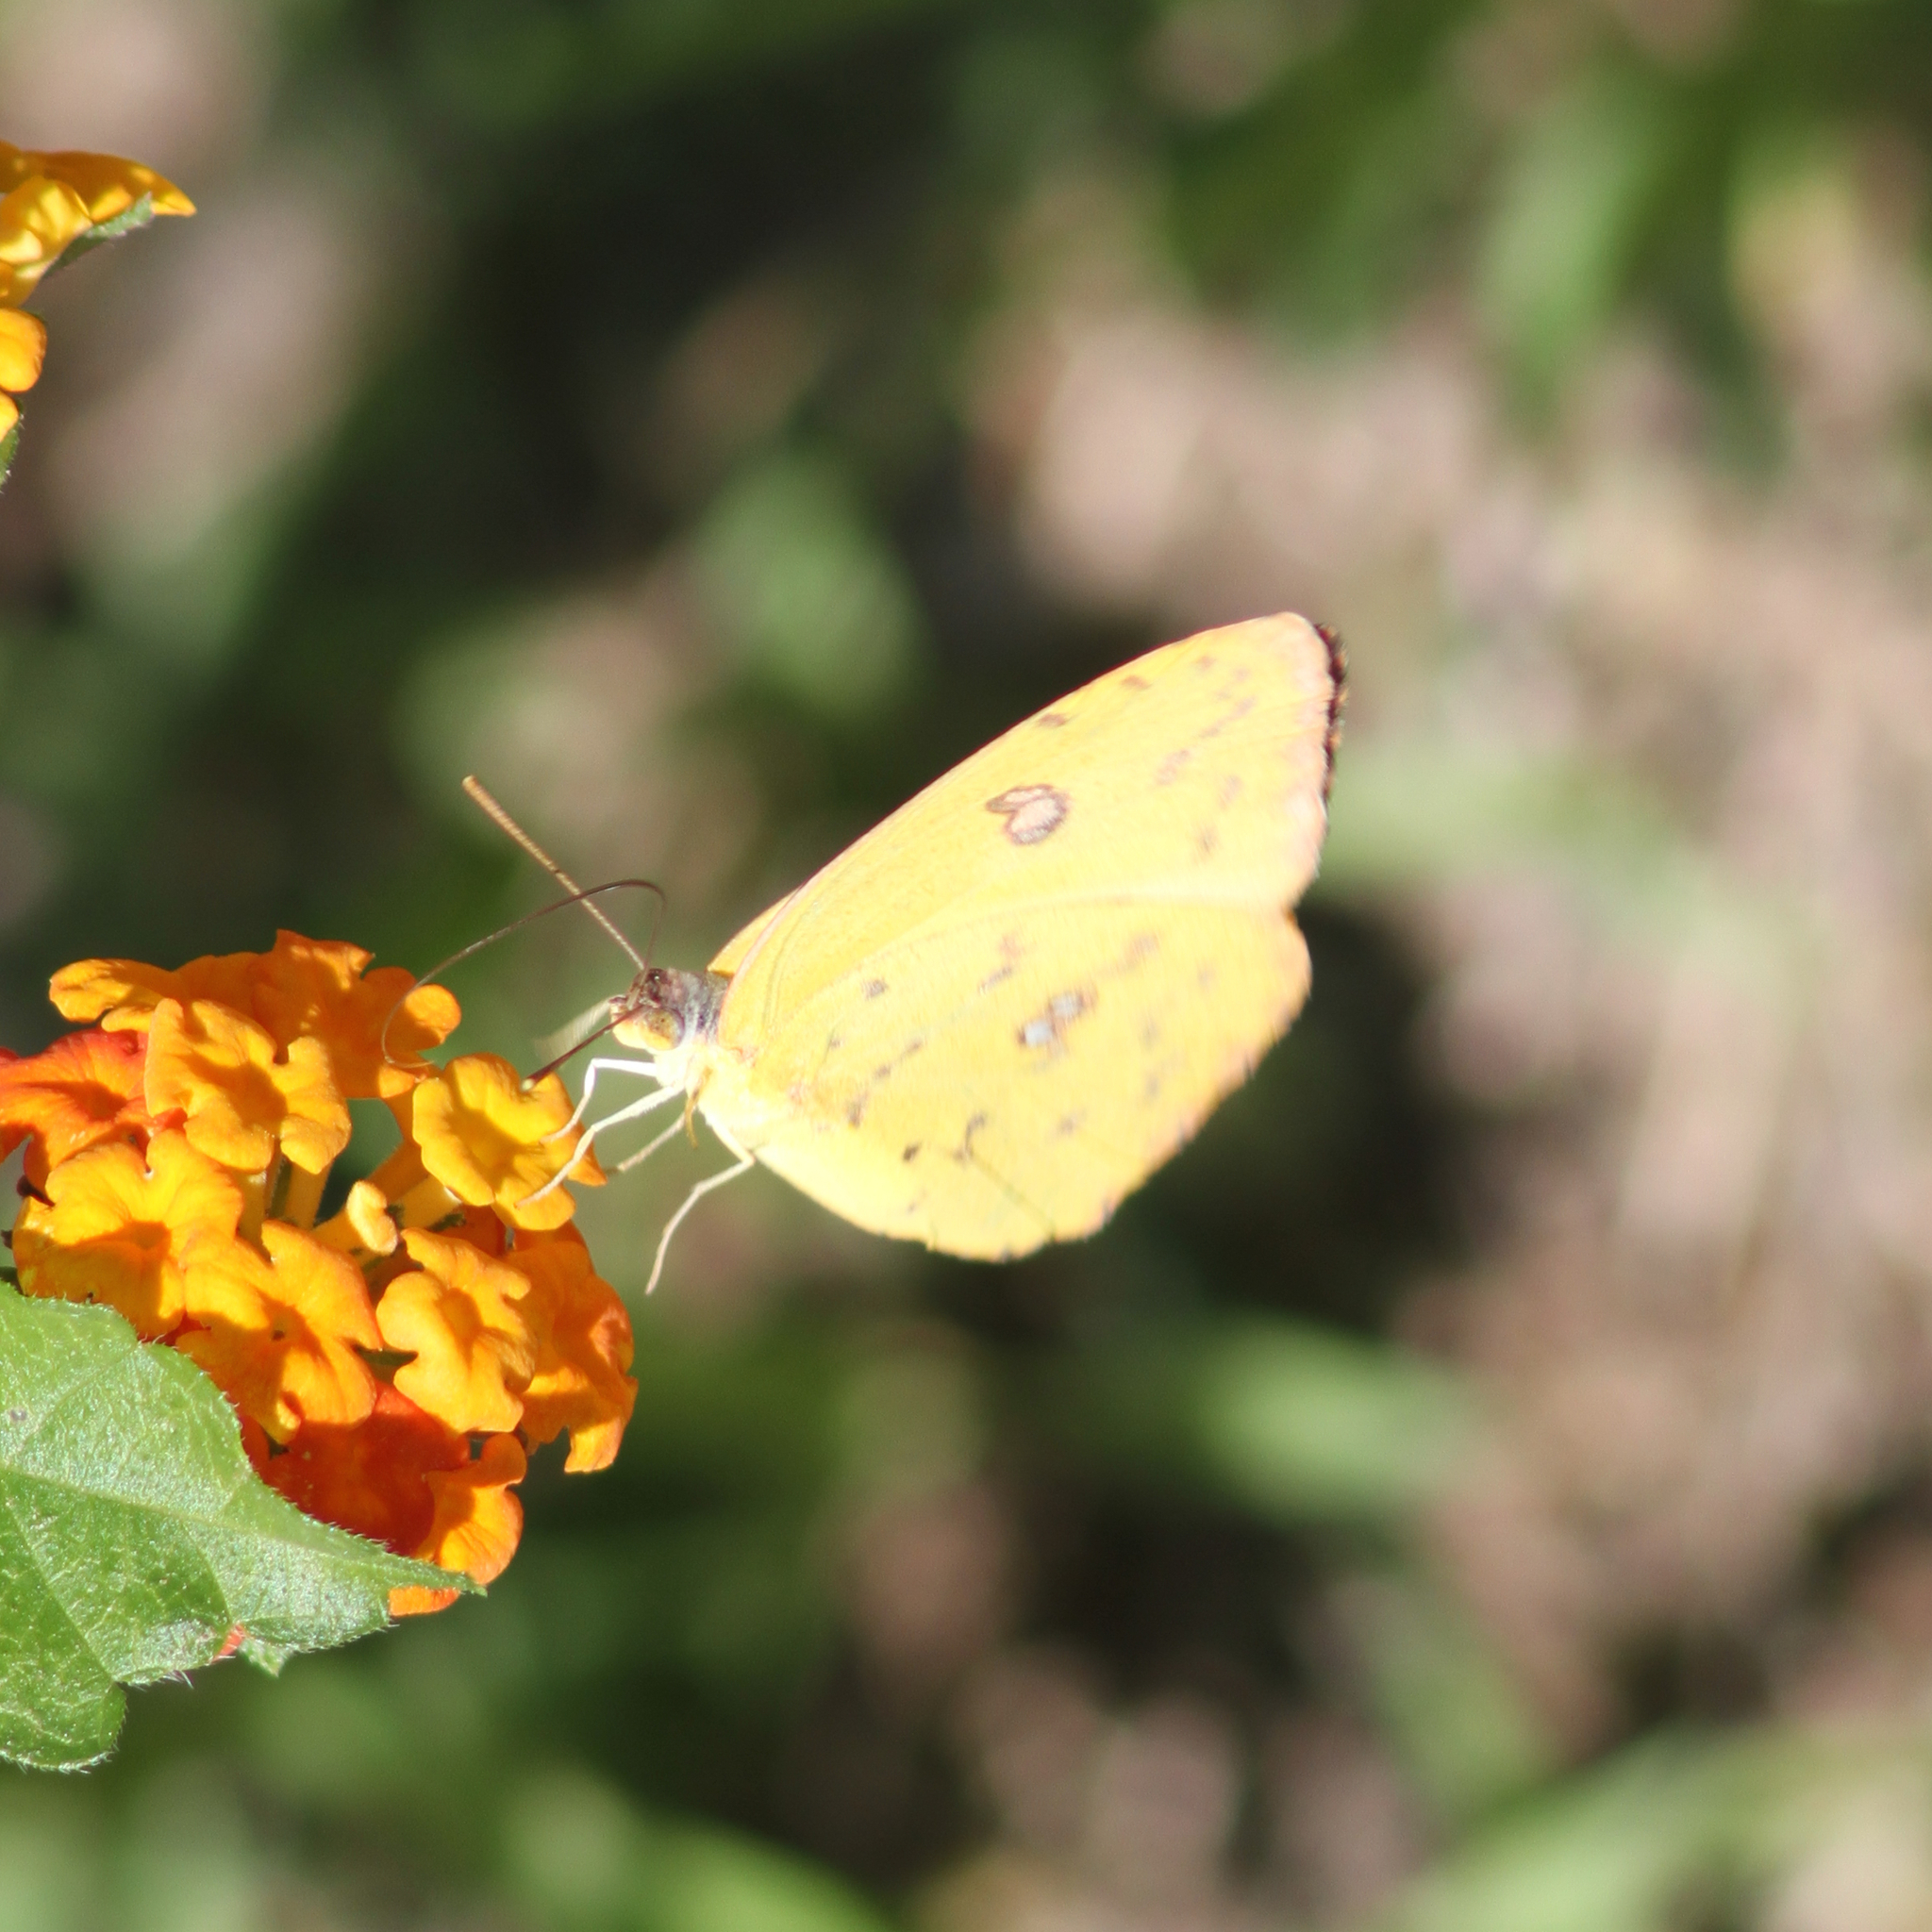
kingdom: Animalia
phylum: Arthropoda
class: Insecta
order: Lepidoptera
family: Pieridae
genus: Phoebis
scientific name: Phoebis sennae
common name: Cloudless sulphur
